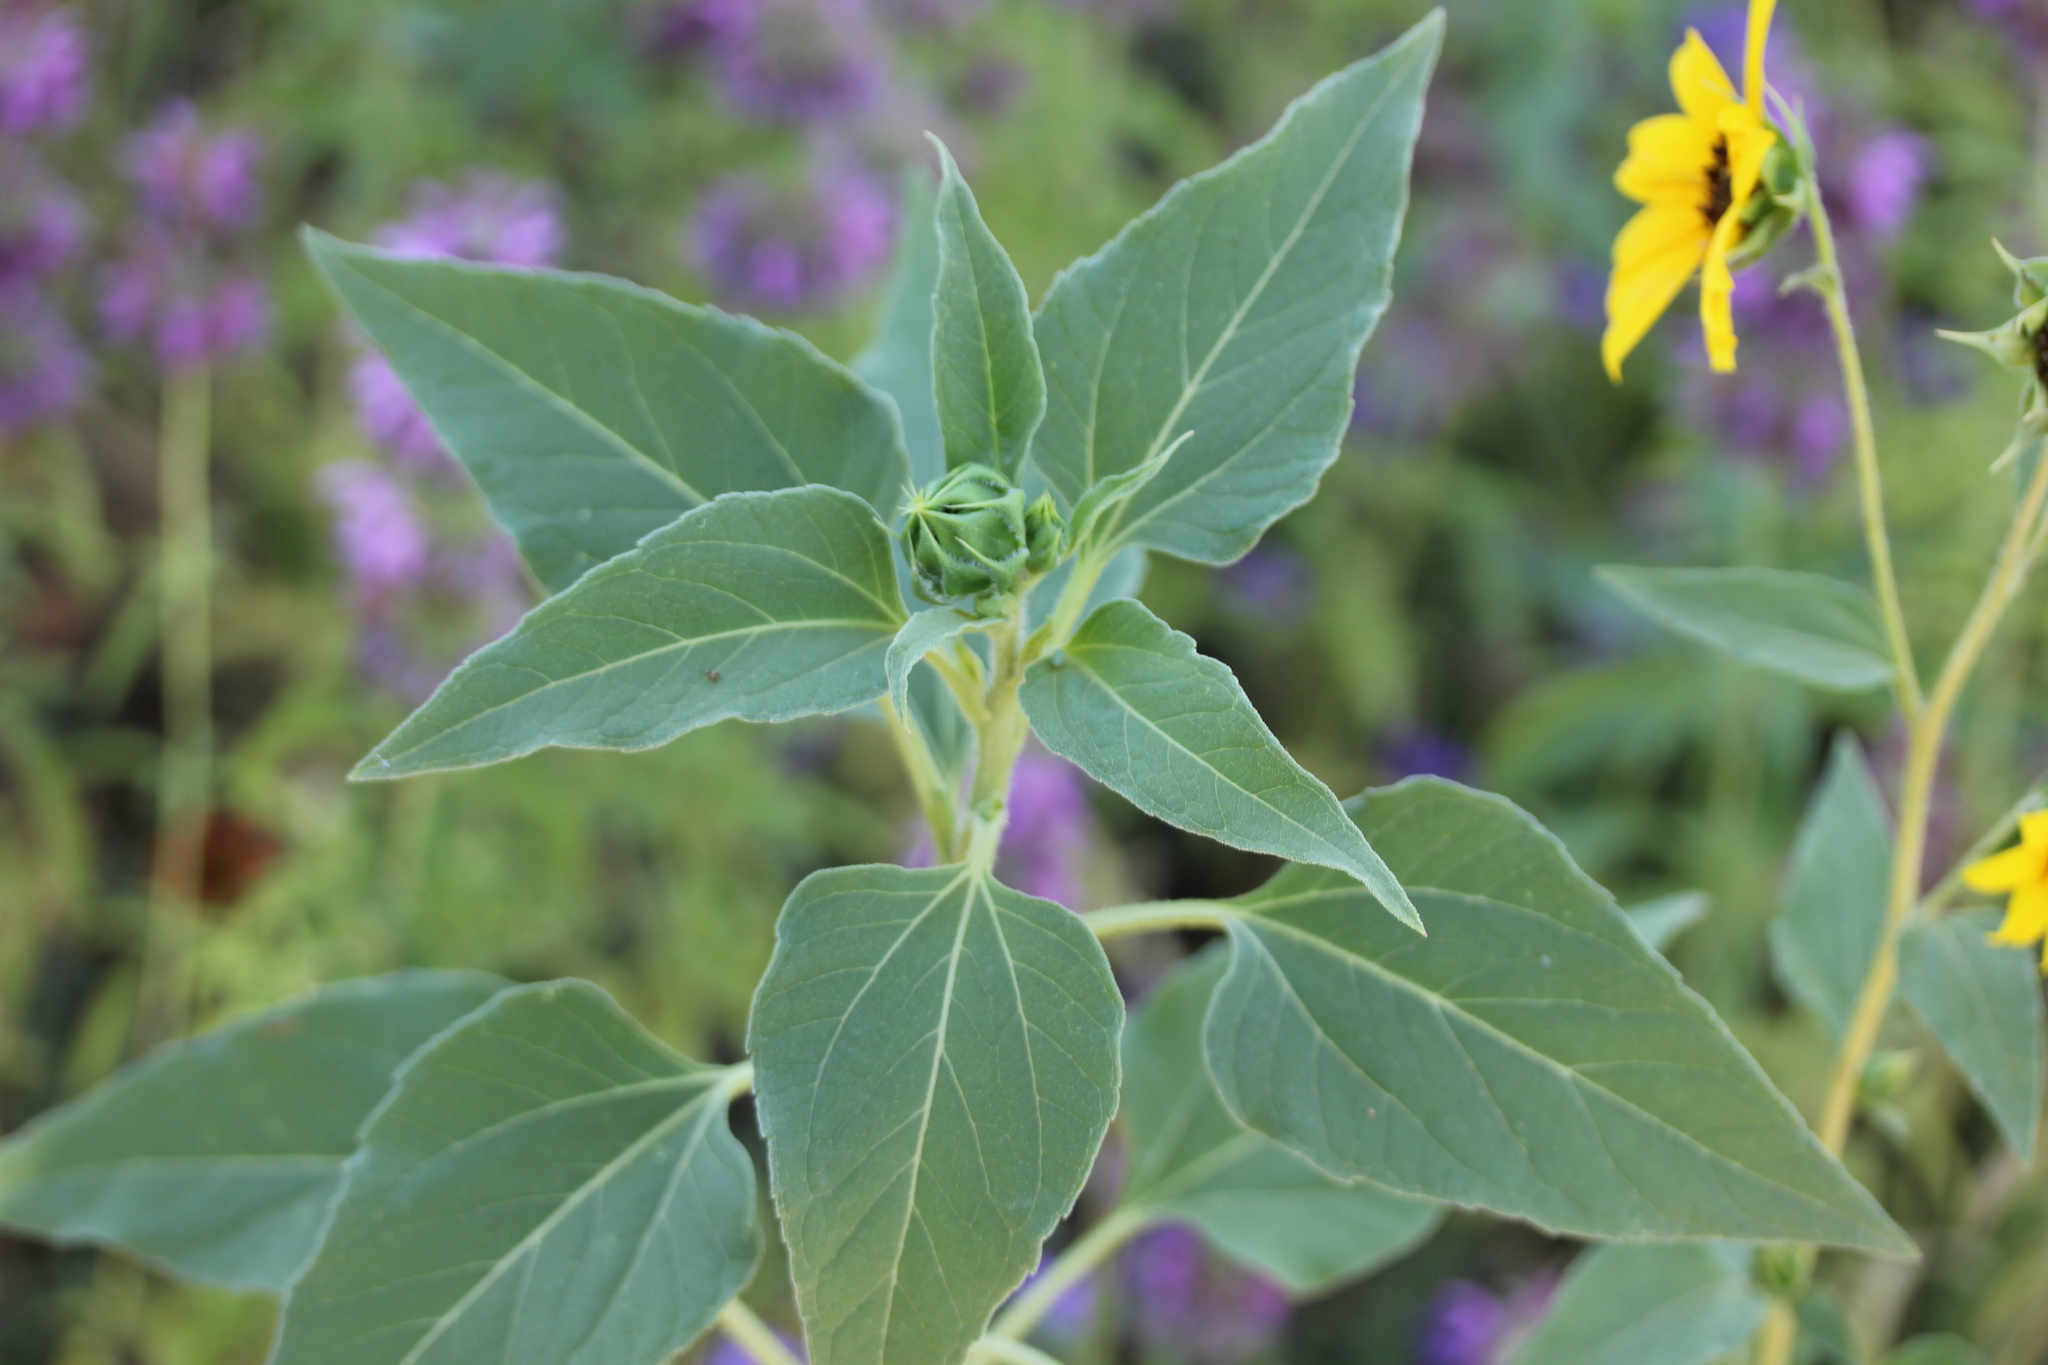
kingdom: Plantae
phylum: Tracheophyta
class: Magnoliopsida
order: Asterales
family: Asteraceae
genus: Helianthus
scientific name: Helianthus annuus
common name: Sunflower
